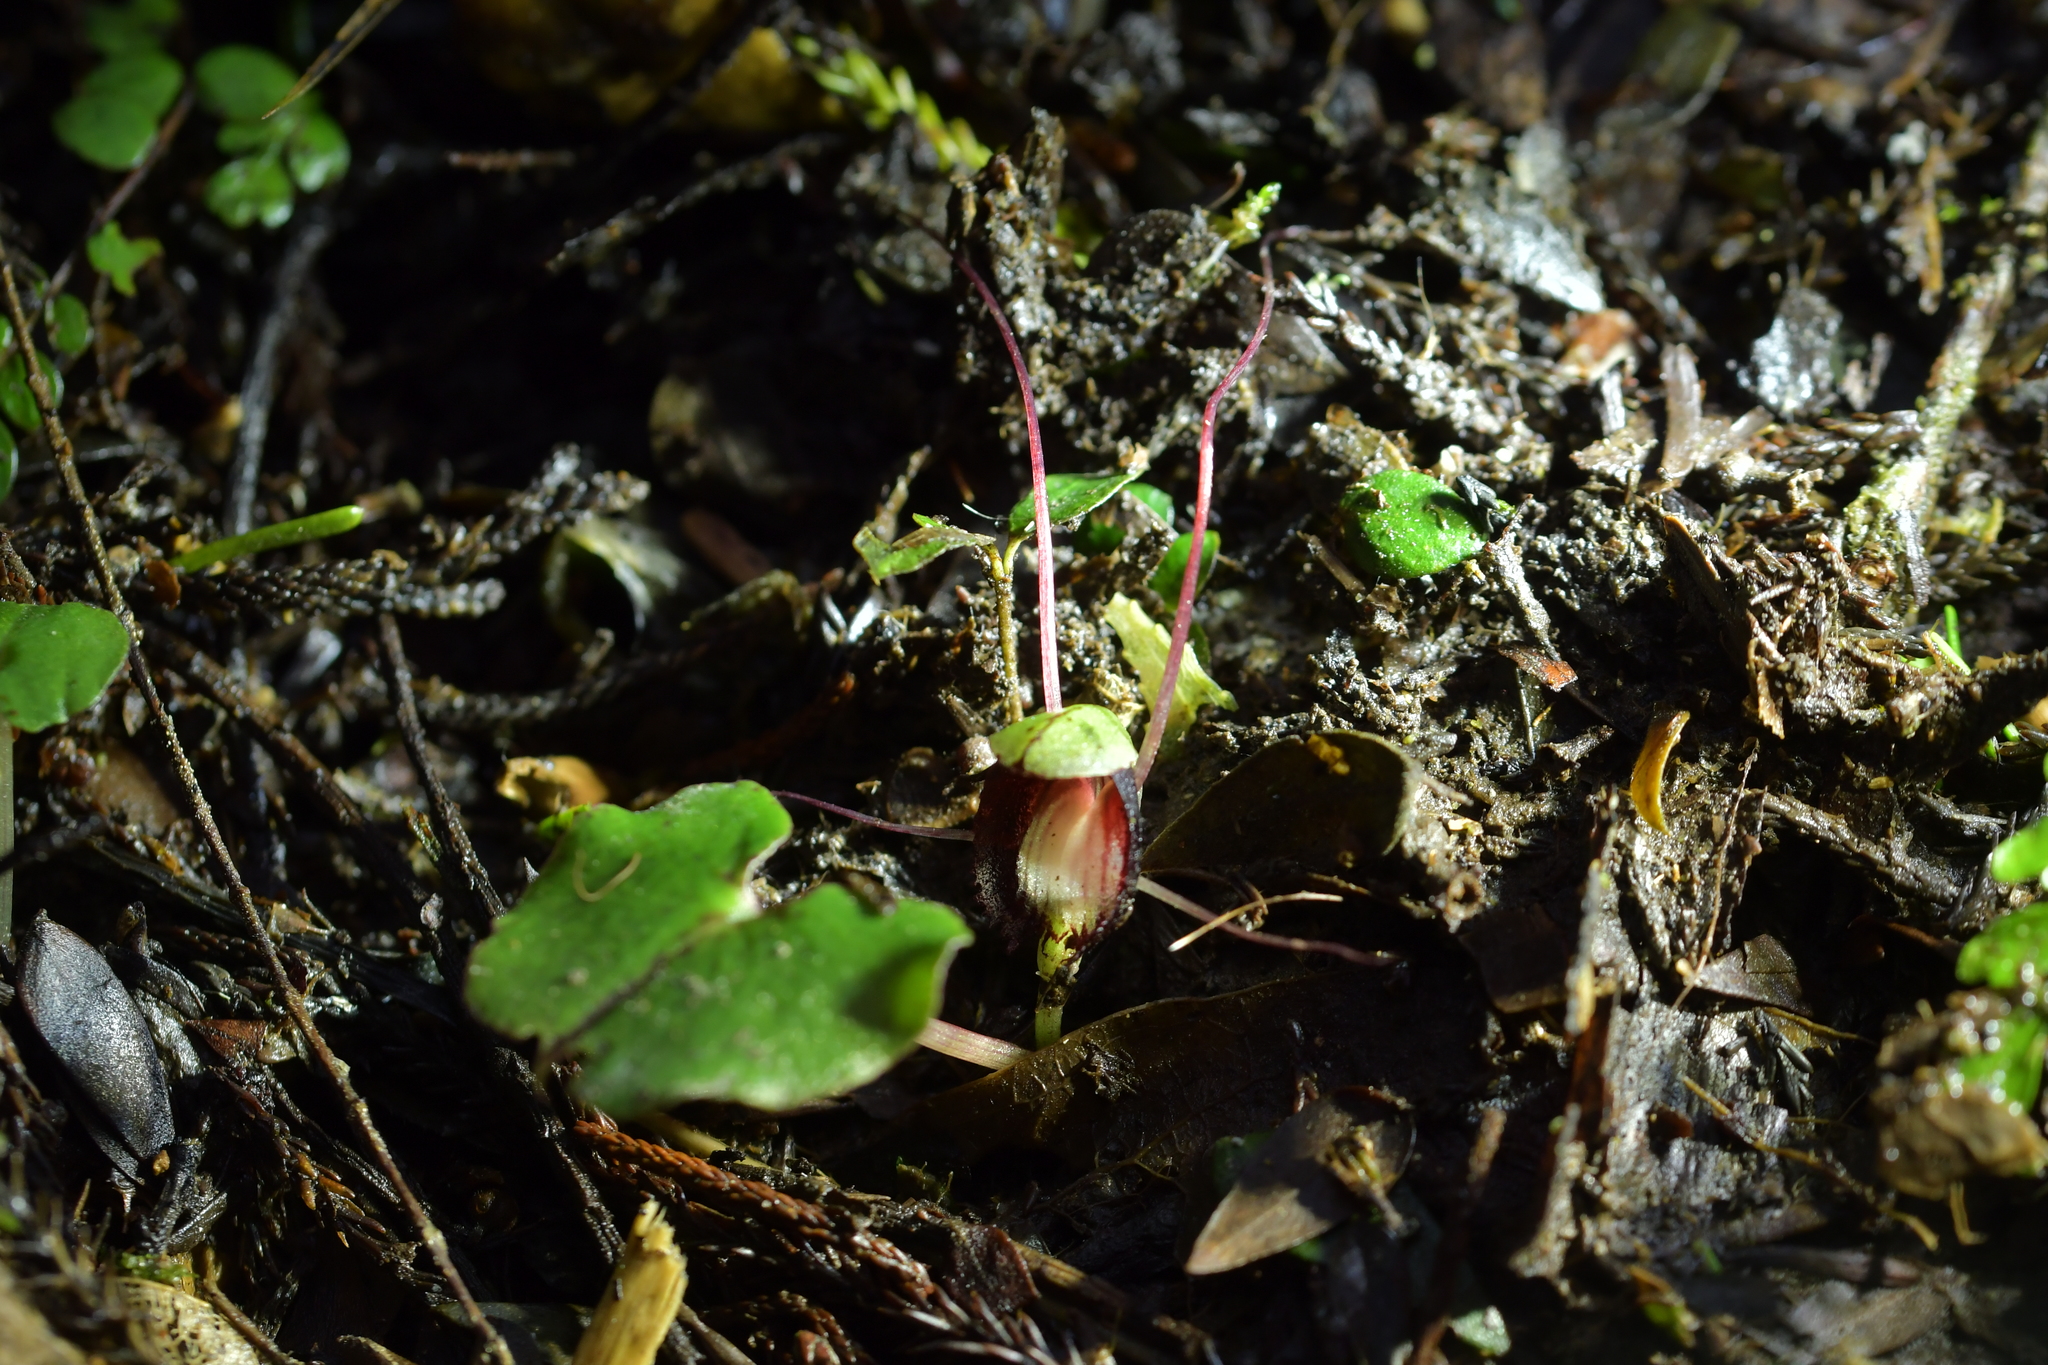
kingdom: Plantae
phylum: Tracheophyta
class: Liliopsida
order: Asparagales
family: Orchidaceae
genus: Corybas
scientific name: Corybas sanctigeorgianus
